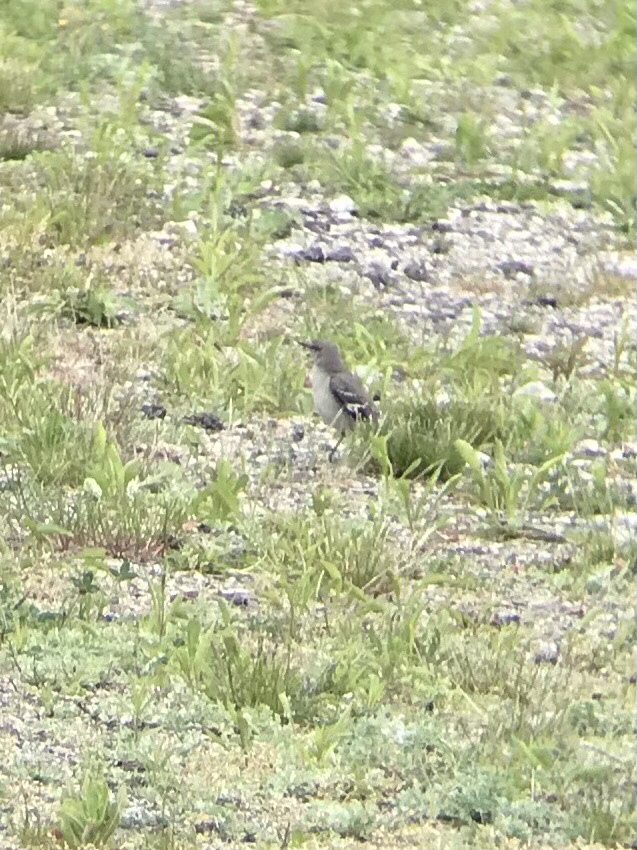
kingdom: Animalia
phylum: Chordata
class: Aves
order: Passeriformes
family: Mimidae
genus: Mimus
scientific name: Mimus polyglottos
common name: Northern mockingbird
